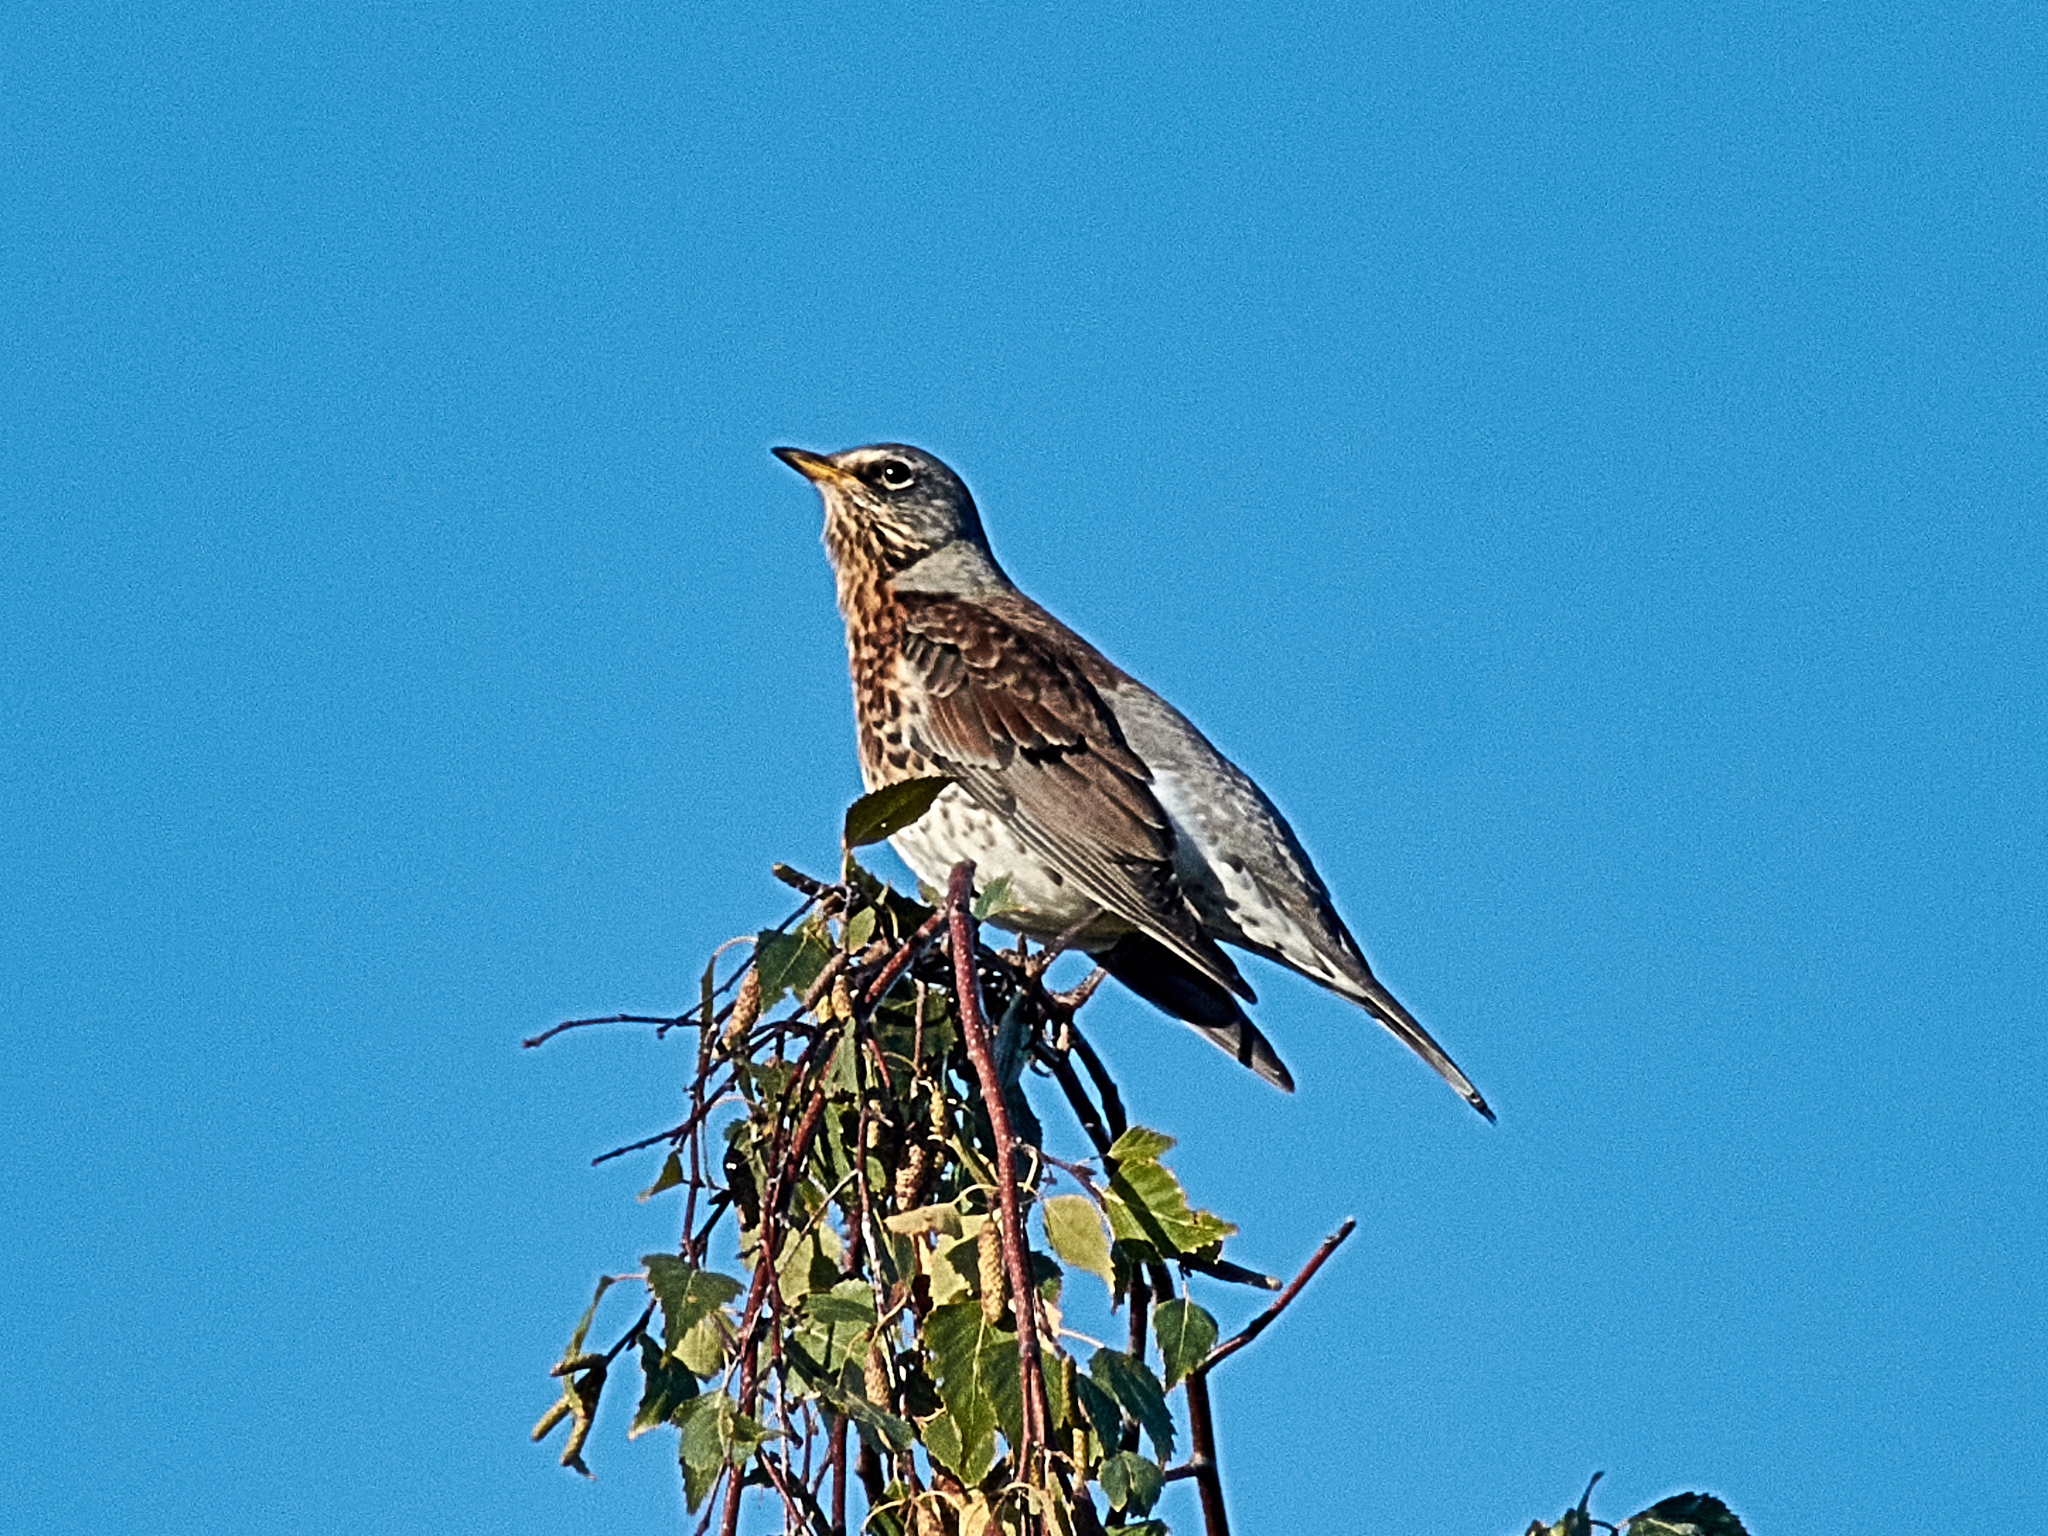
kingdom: Animalia
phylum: Chordata
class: Aves
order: Passeriformes
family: Turdidae
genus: Turdus
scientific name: Turdus pilaris
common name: Fieldfare
